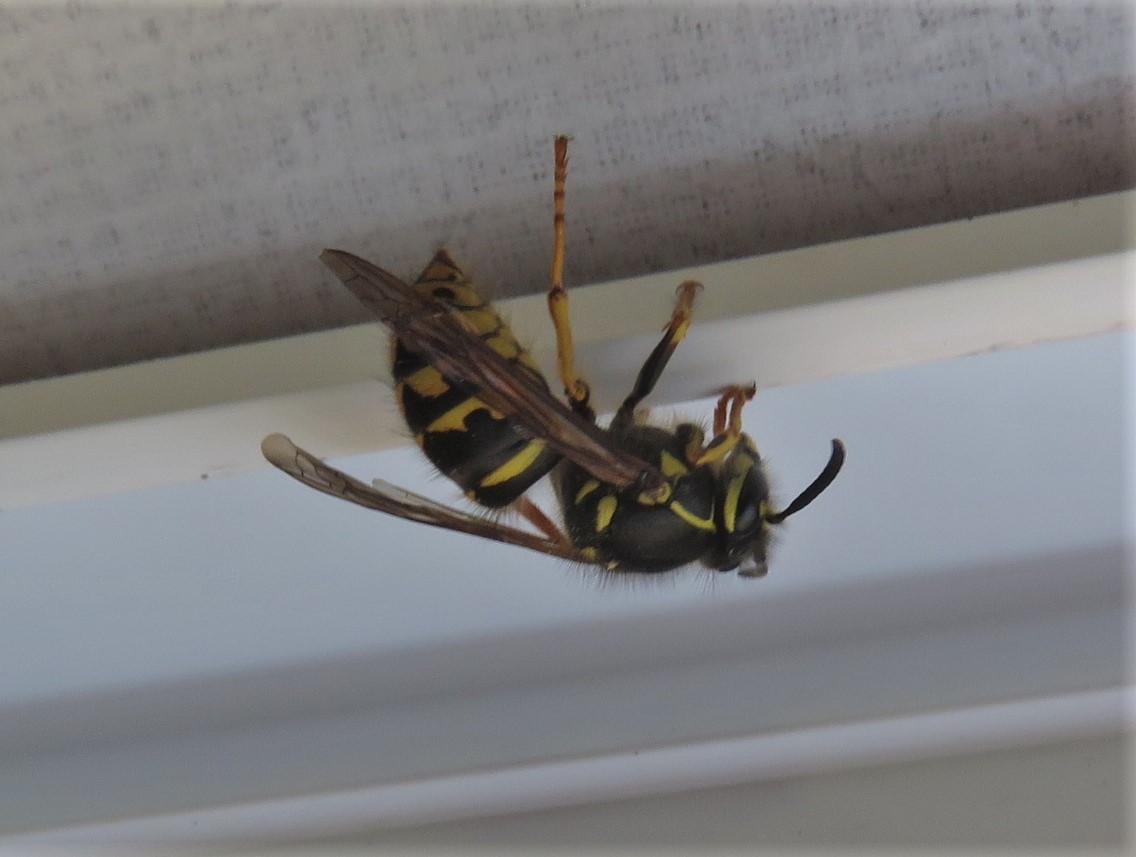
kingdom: Animalia
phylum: Arthropoda
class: Insecta
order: Hymenoptera
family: Vespidae
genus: Dolichovespula
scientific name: Dolichovespula arenaria
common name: Aerial yellowjacket
